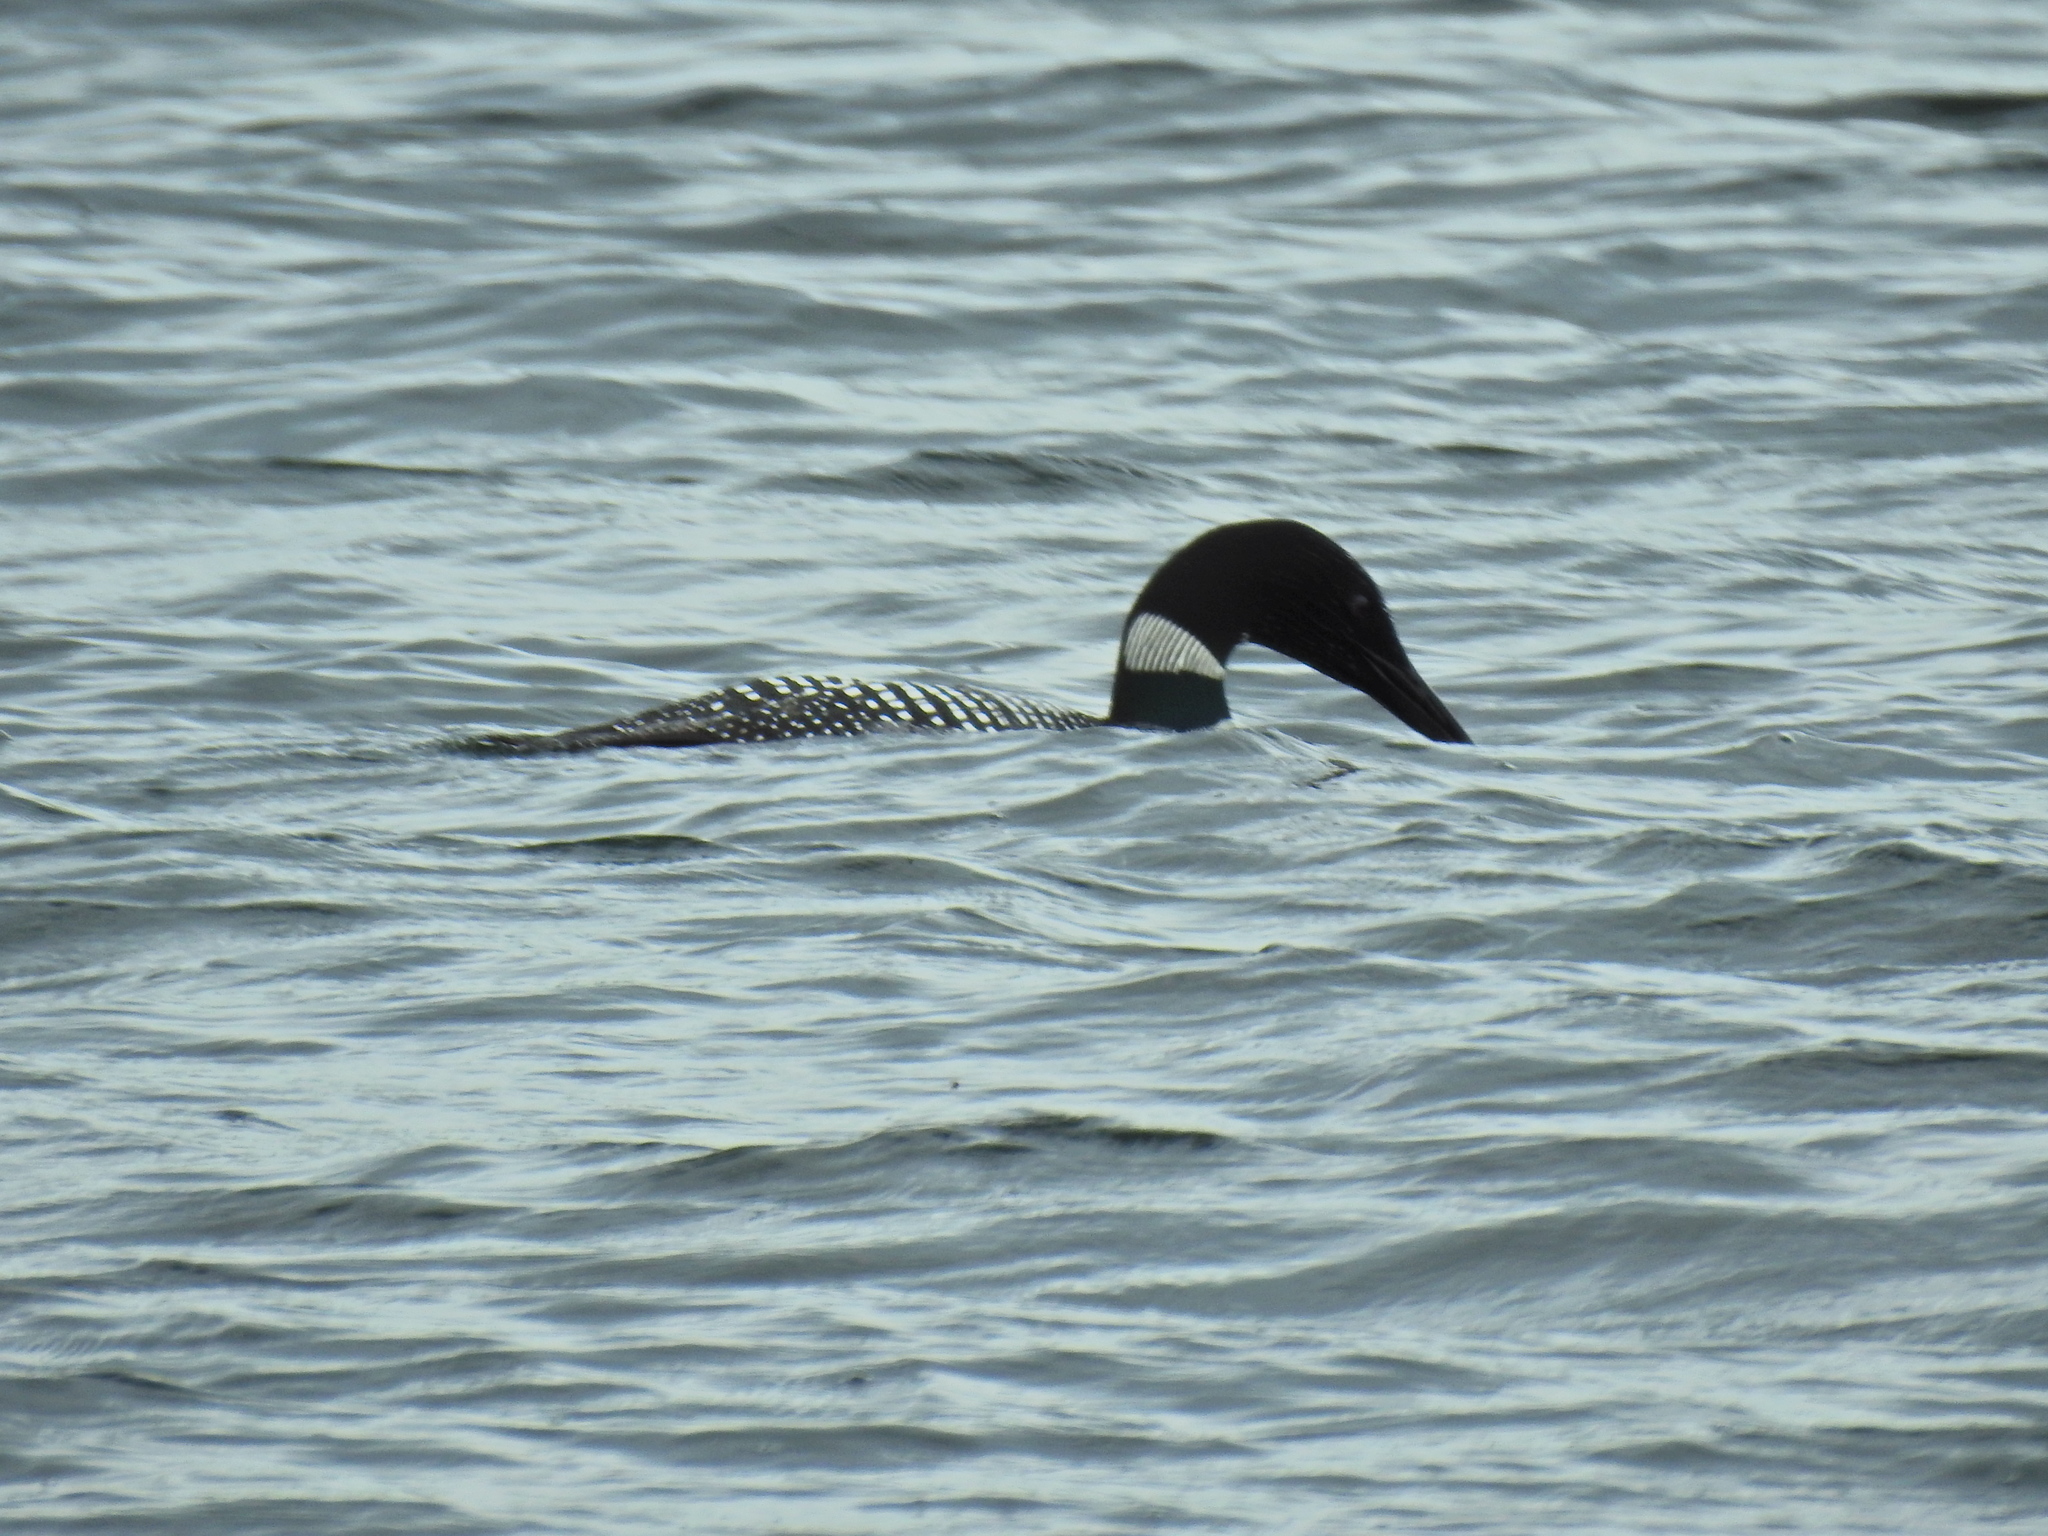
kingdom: Animalia
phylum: Chordata
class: Aves
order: Gaviiformes
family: Gaviidae
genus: Gavia
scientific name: Gavia immer
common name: Common loon
